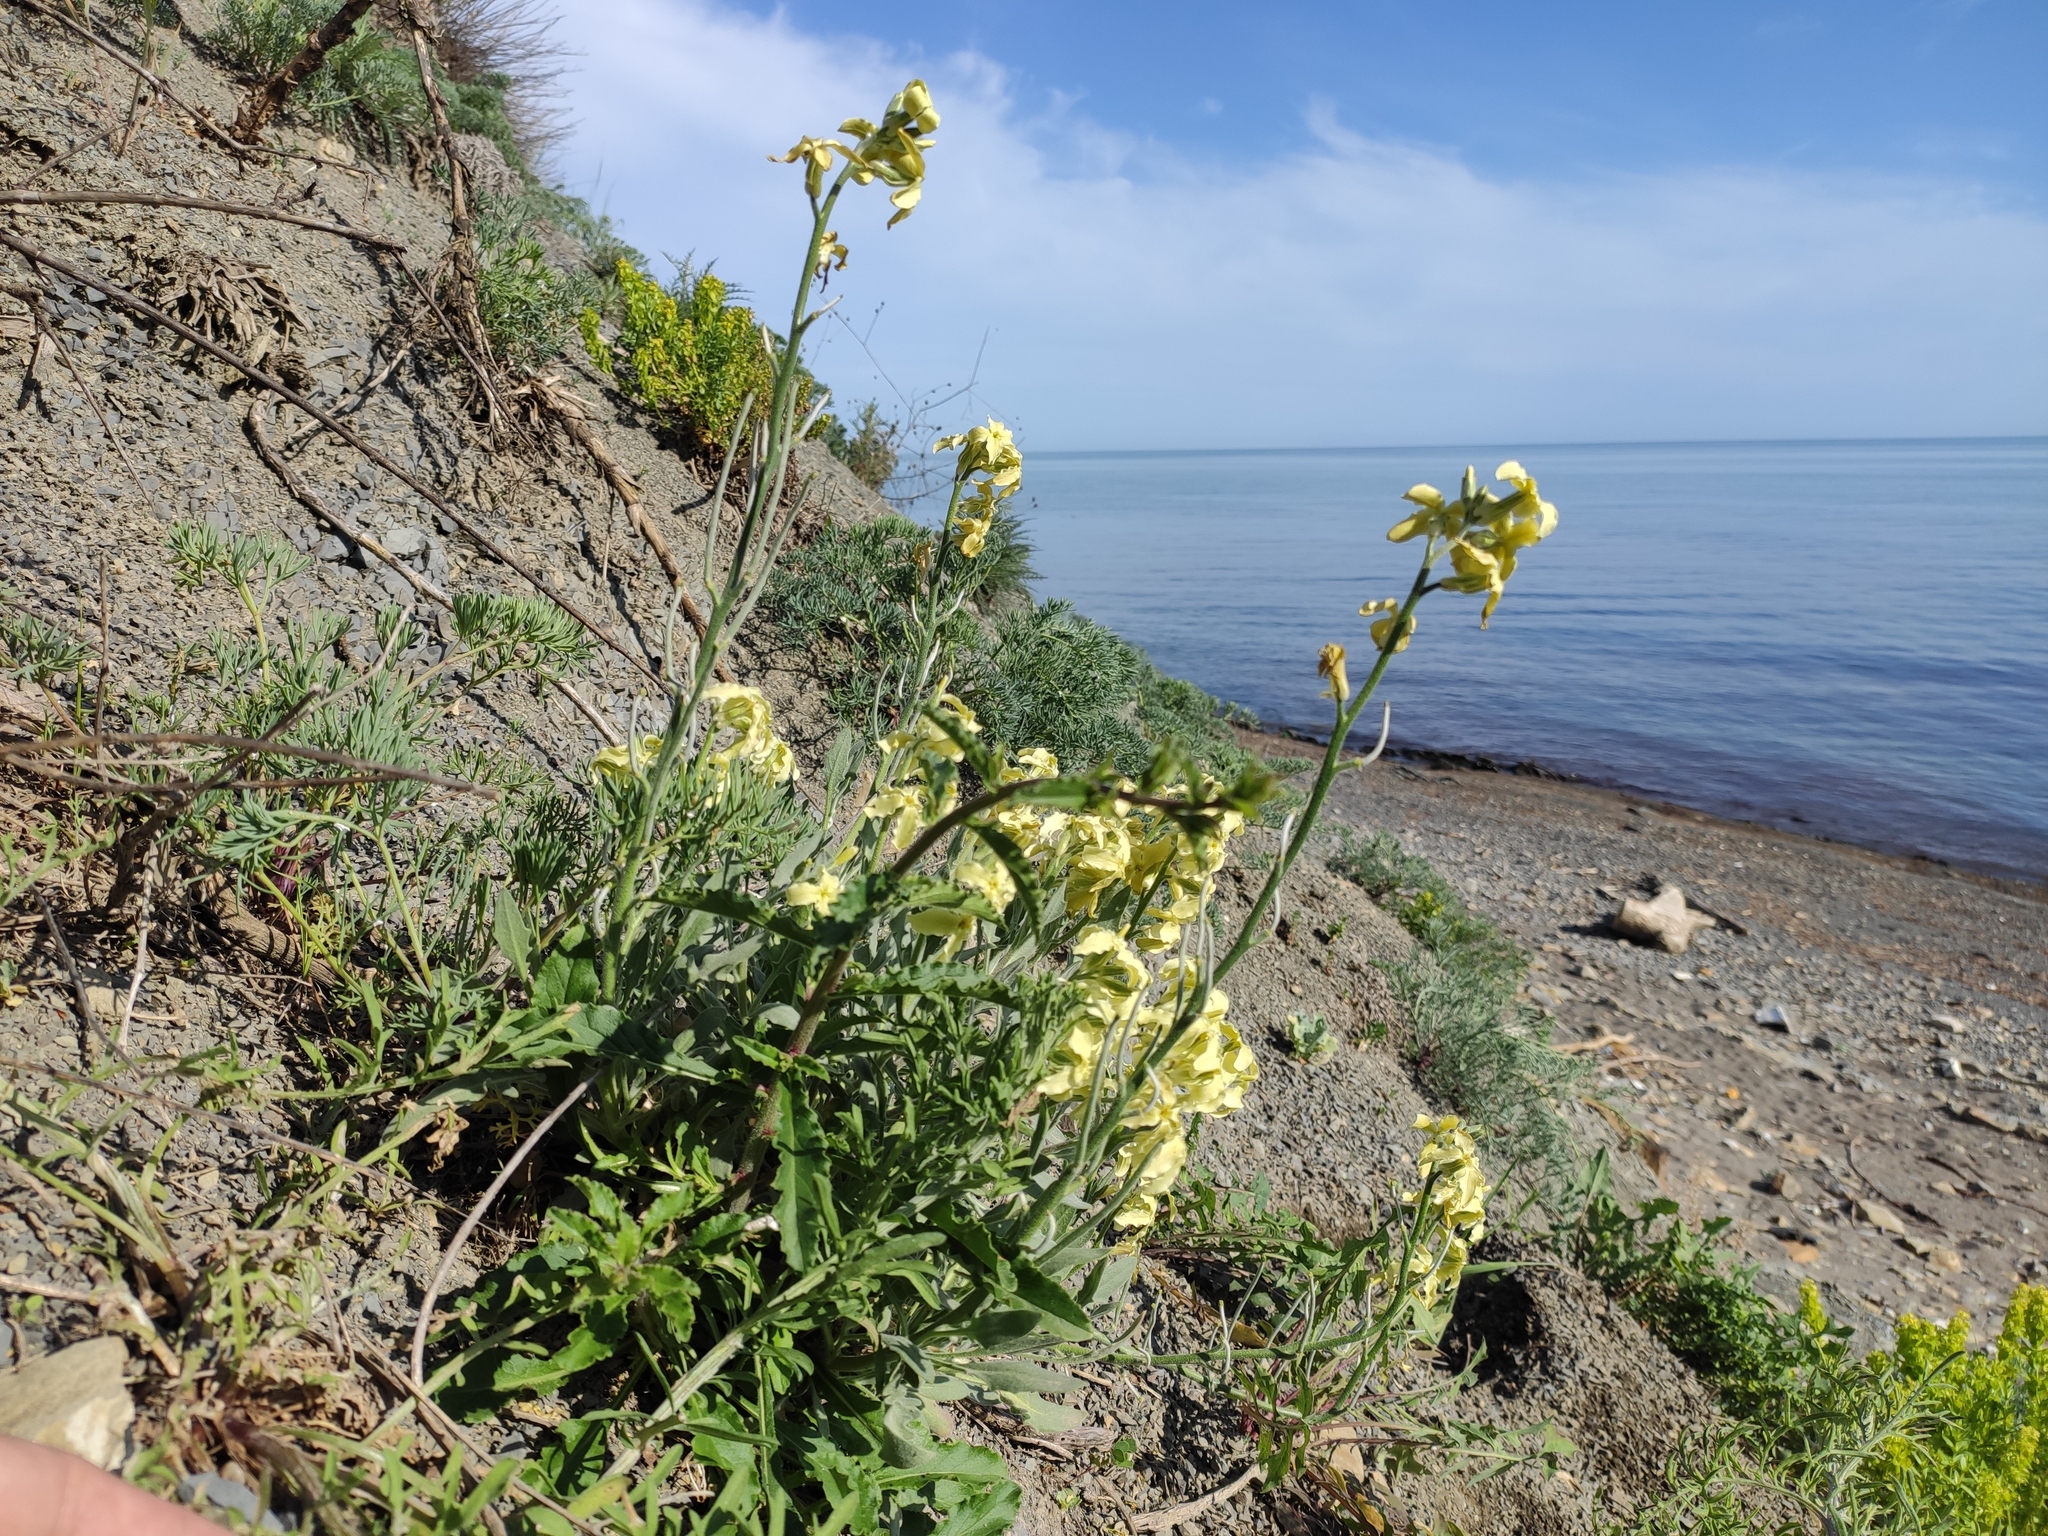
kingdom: Plantae
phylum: Tracheophyta
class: Magnoliopsida
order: Brassicales
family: Brassicaceae
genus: Matthiola
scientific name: Matthiola odoratissima
